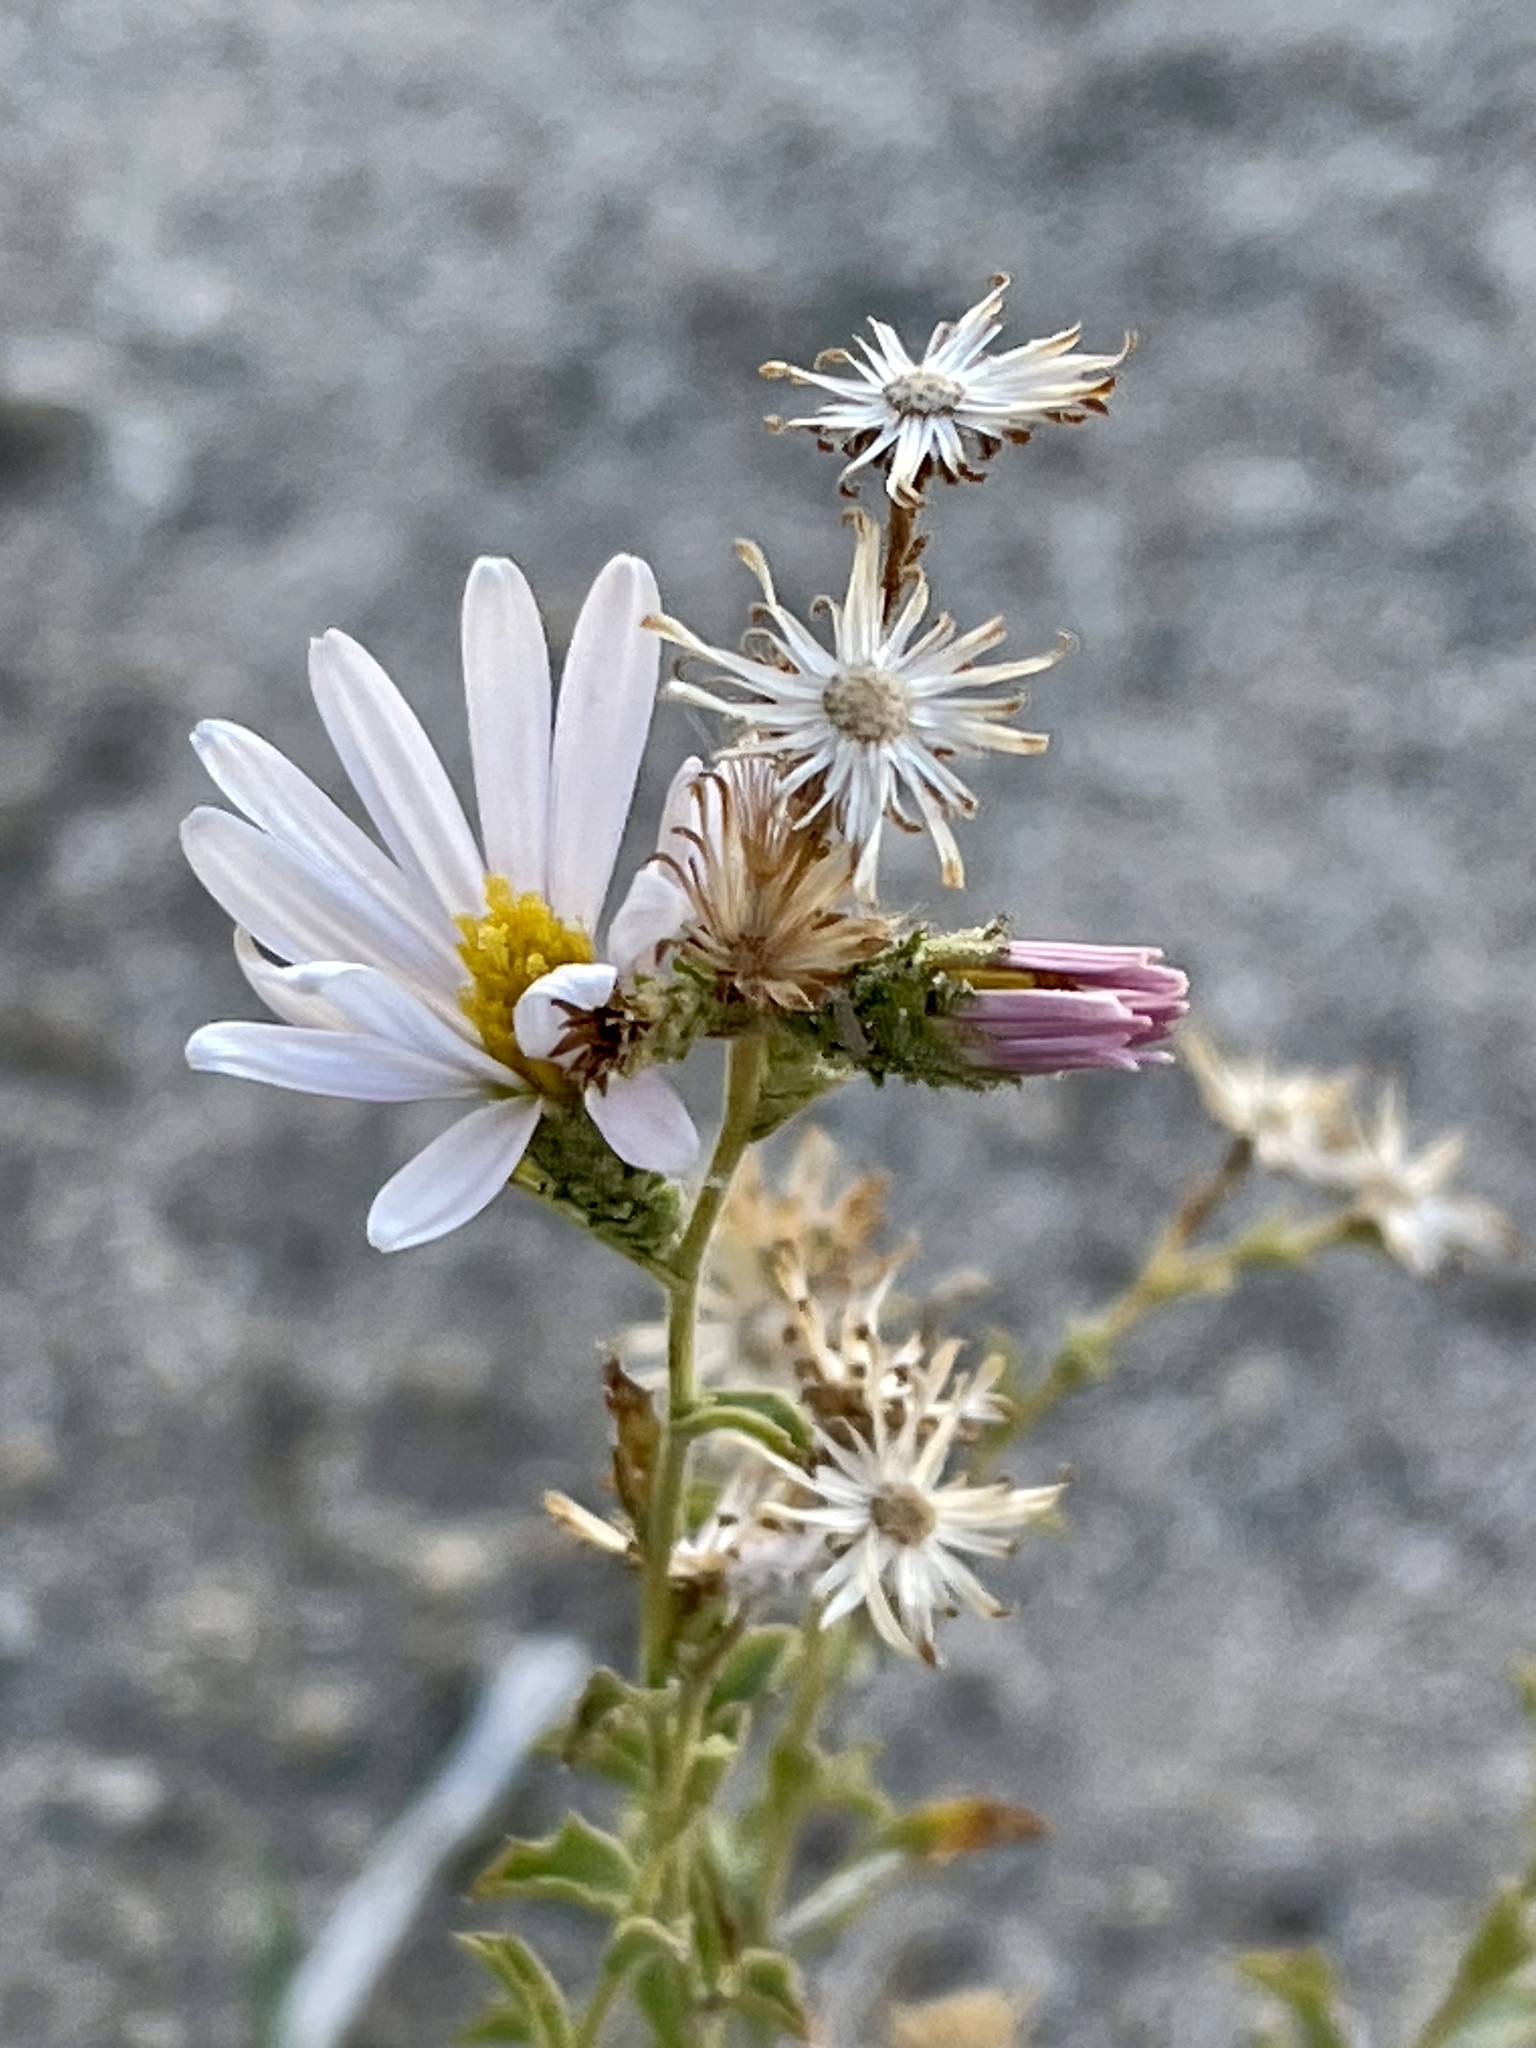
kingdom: Plantae
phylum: Tracheophyta
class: Magnoliopsida
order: Asterales
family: Asteraceae
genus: Corethrogyne
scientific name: Corethrogyne filaginifolia
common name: Sand-aster
